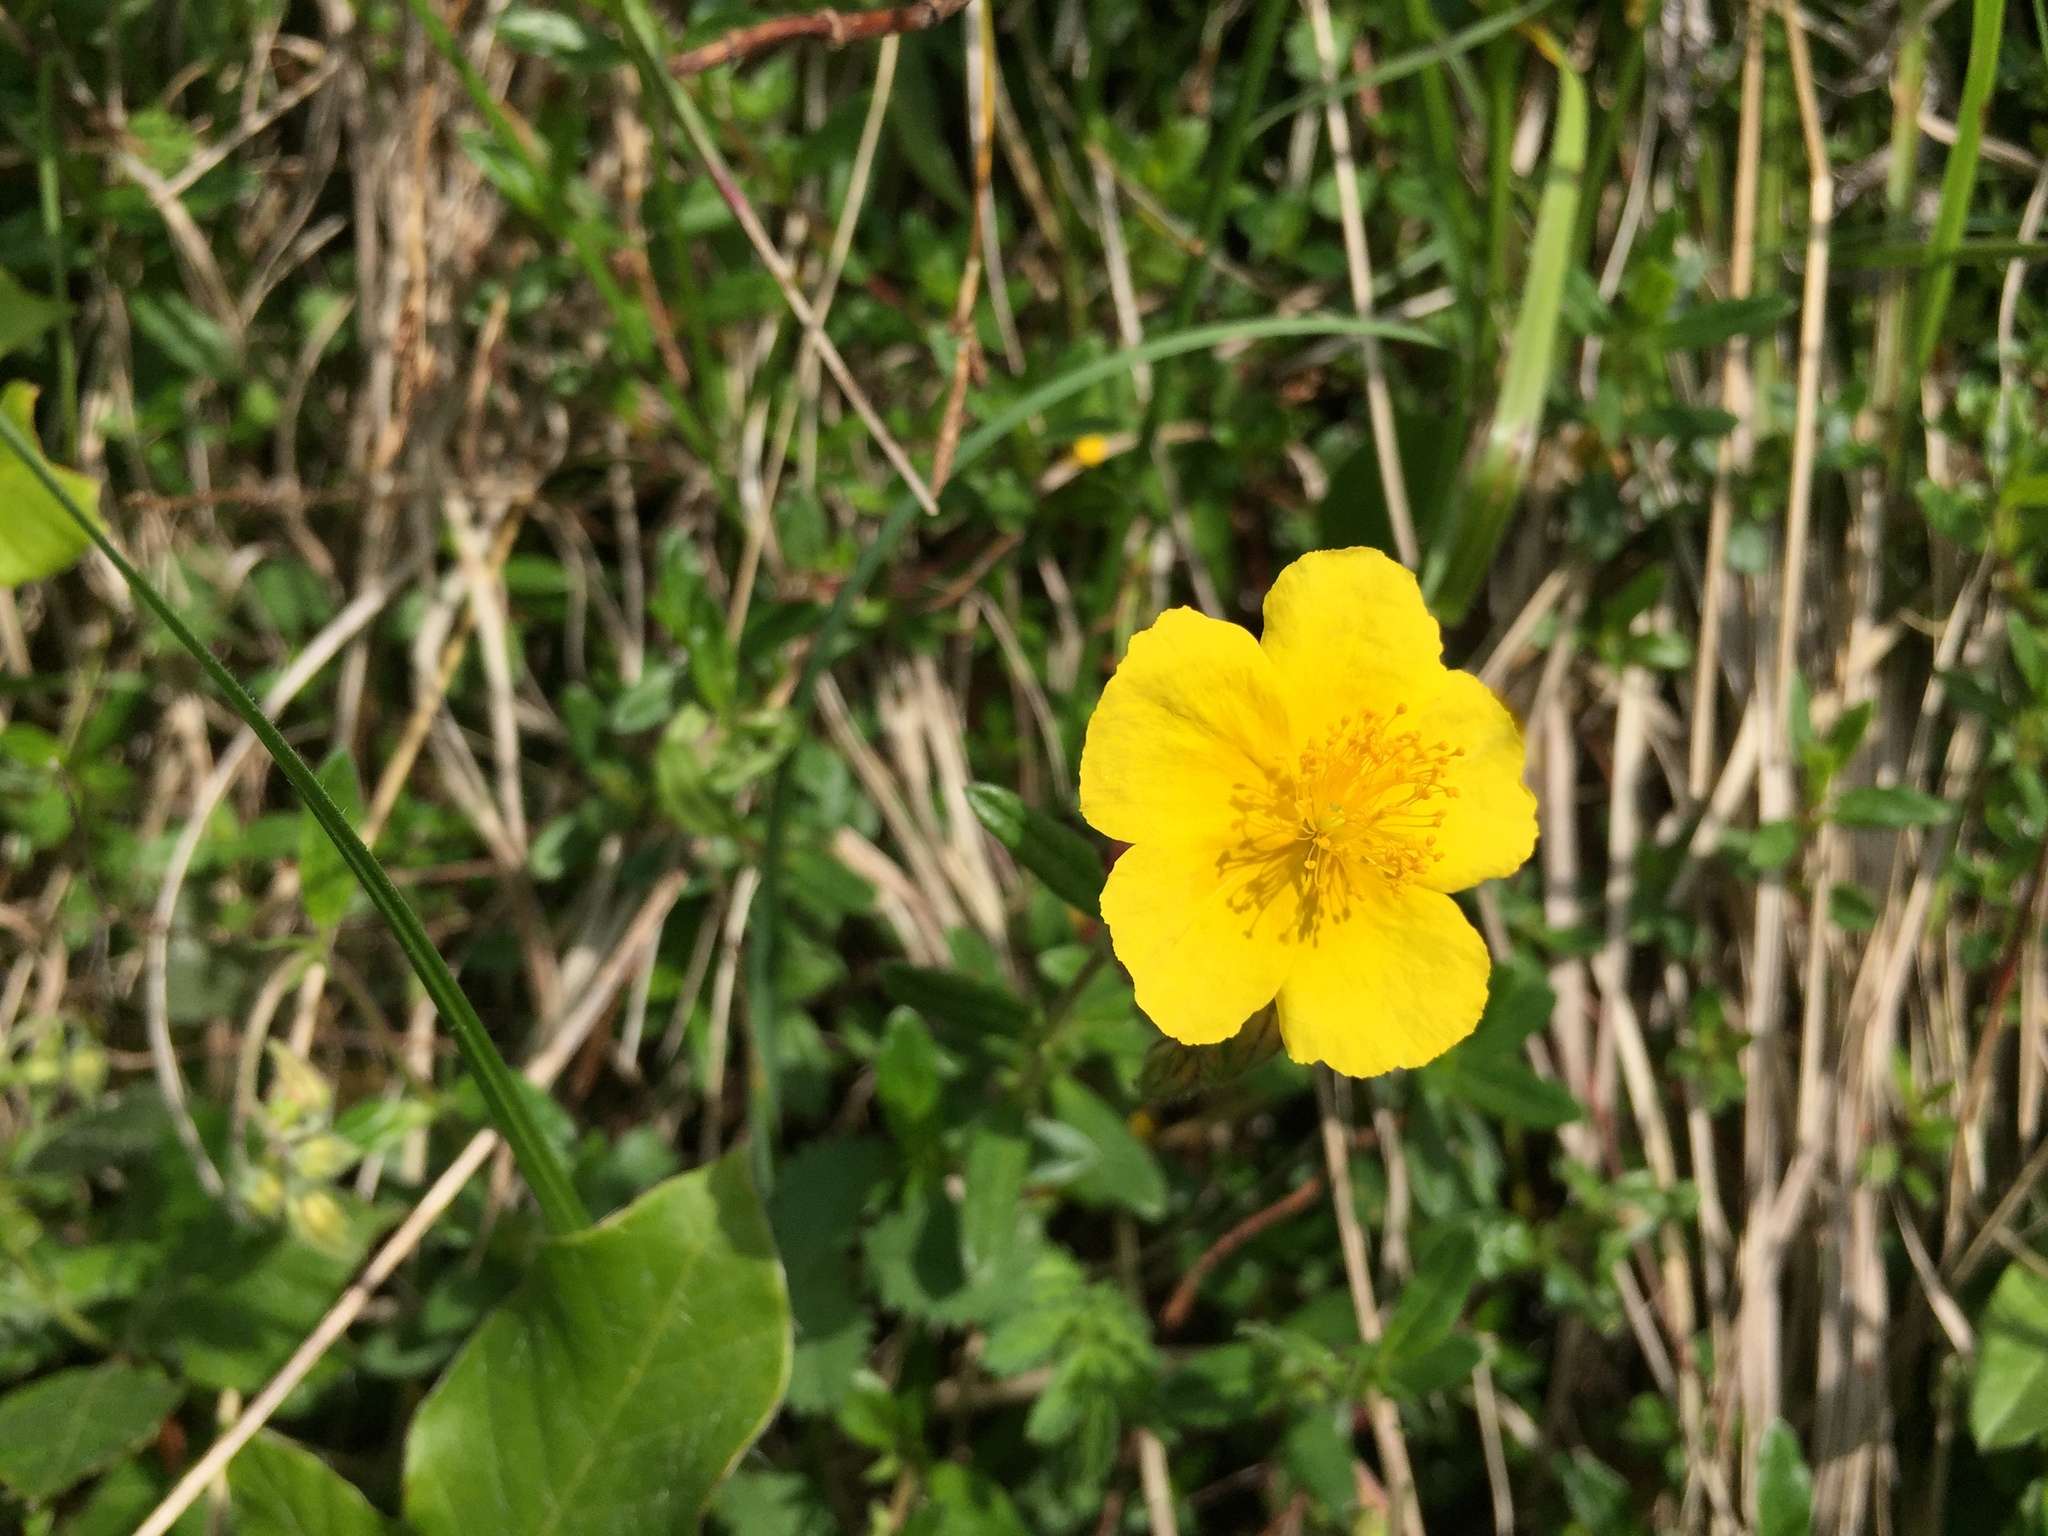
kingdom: Plantae
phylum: Tracheophyta
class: Magnoliopsida
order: Malvales
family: Cistaceae
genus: Helianthemum
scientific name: Helianthemum nummularium
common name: Common rock-rose
